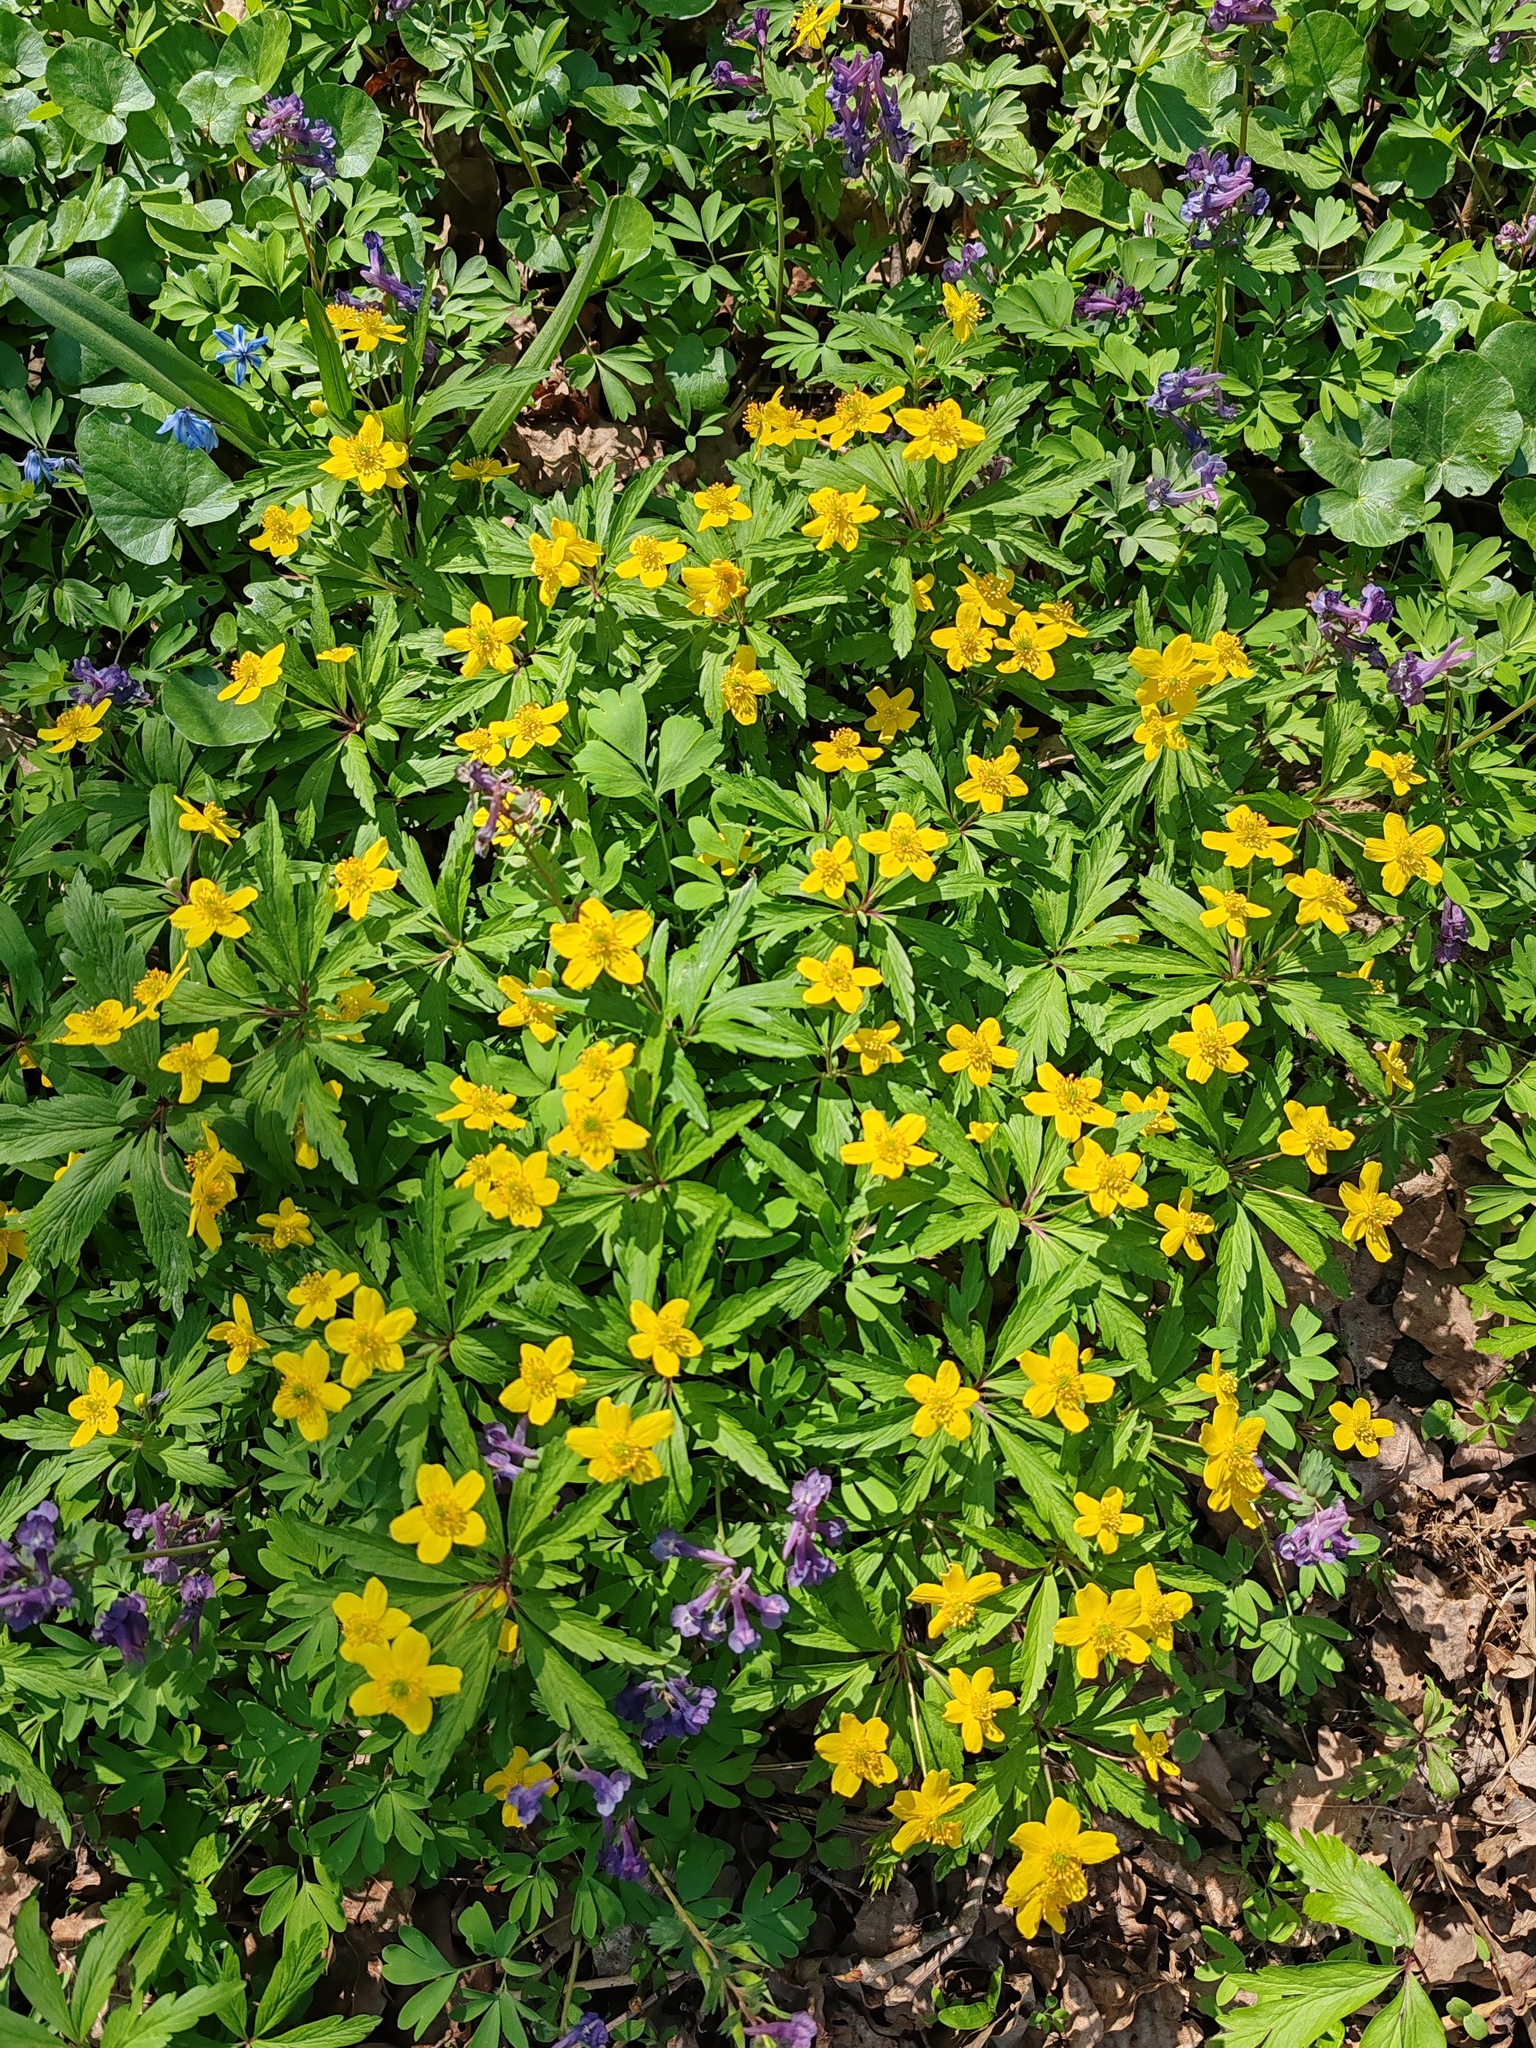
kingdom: Plantae
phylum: Tracheophyta
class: Magnoliopsida
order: Ranunculales
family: Ranunculaceae
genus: Anemone
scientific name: Anemone ranunculoides
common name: Yellow anemone
